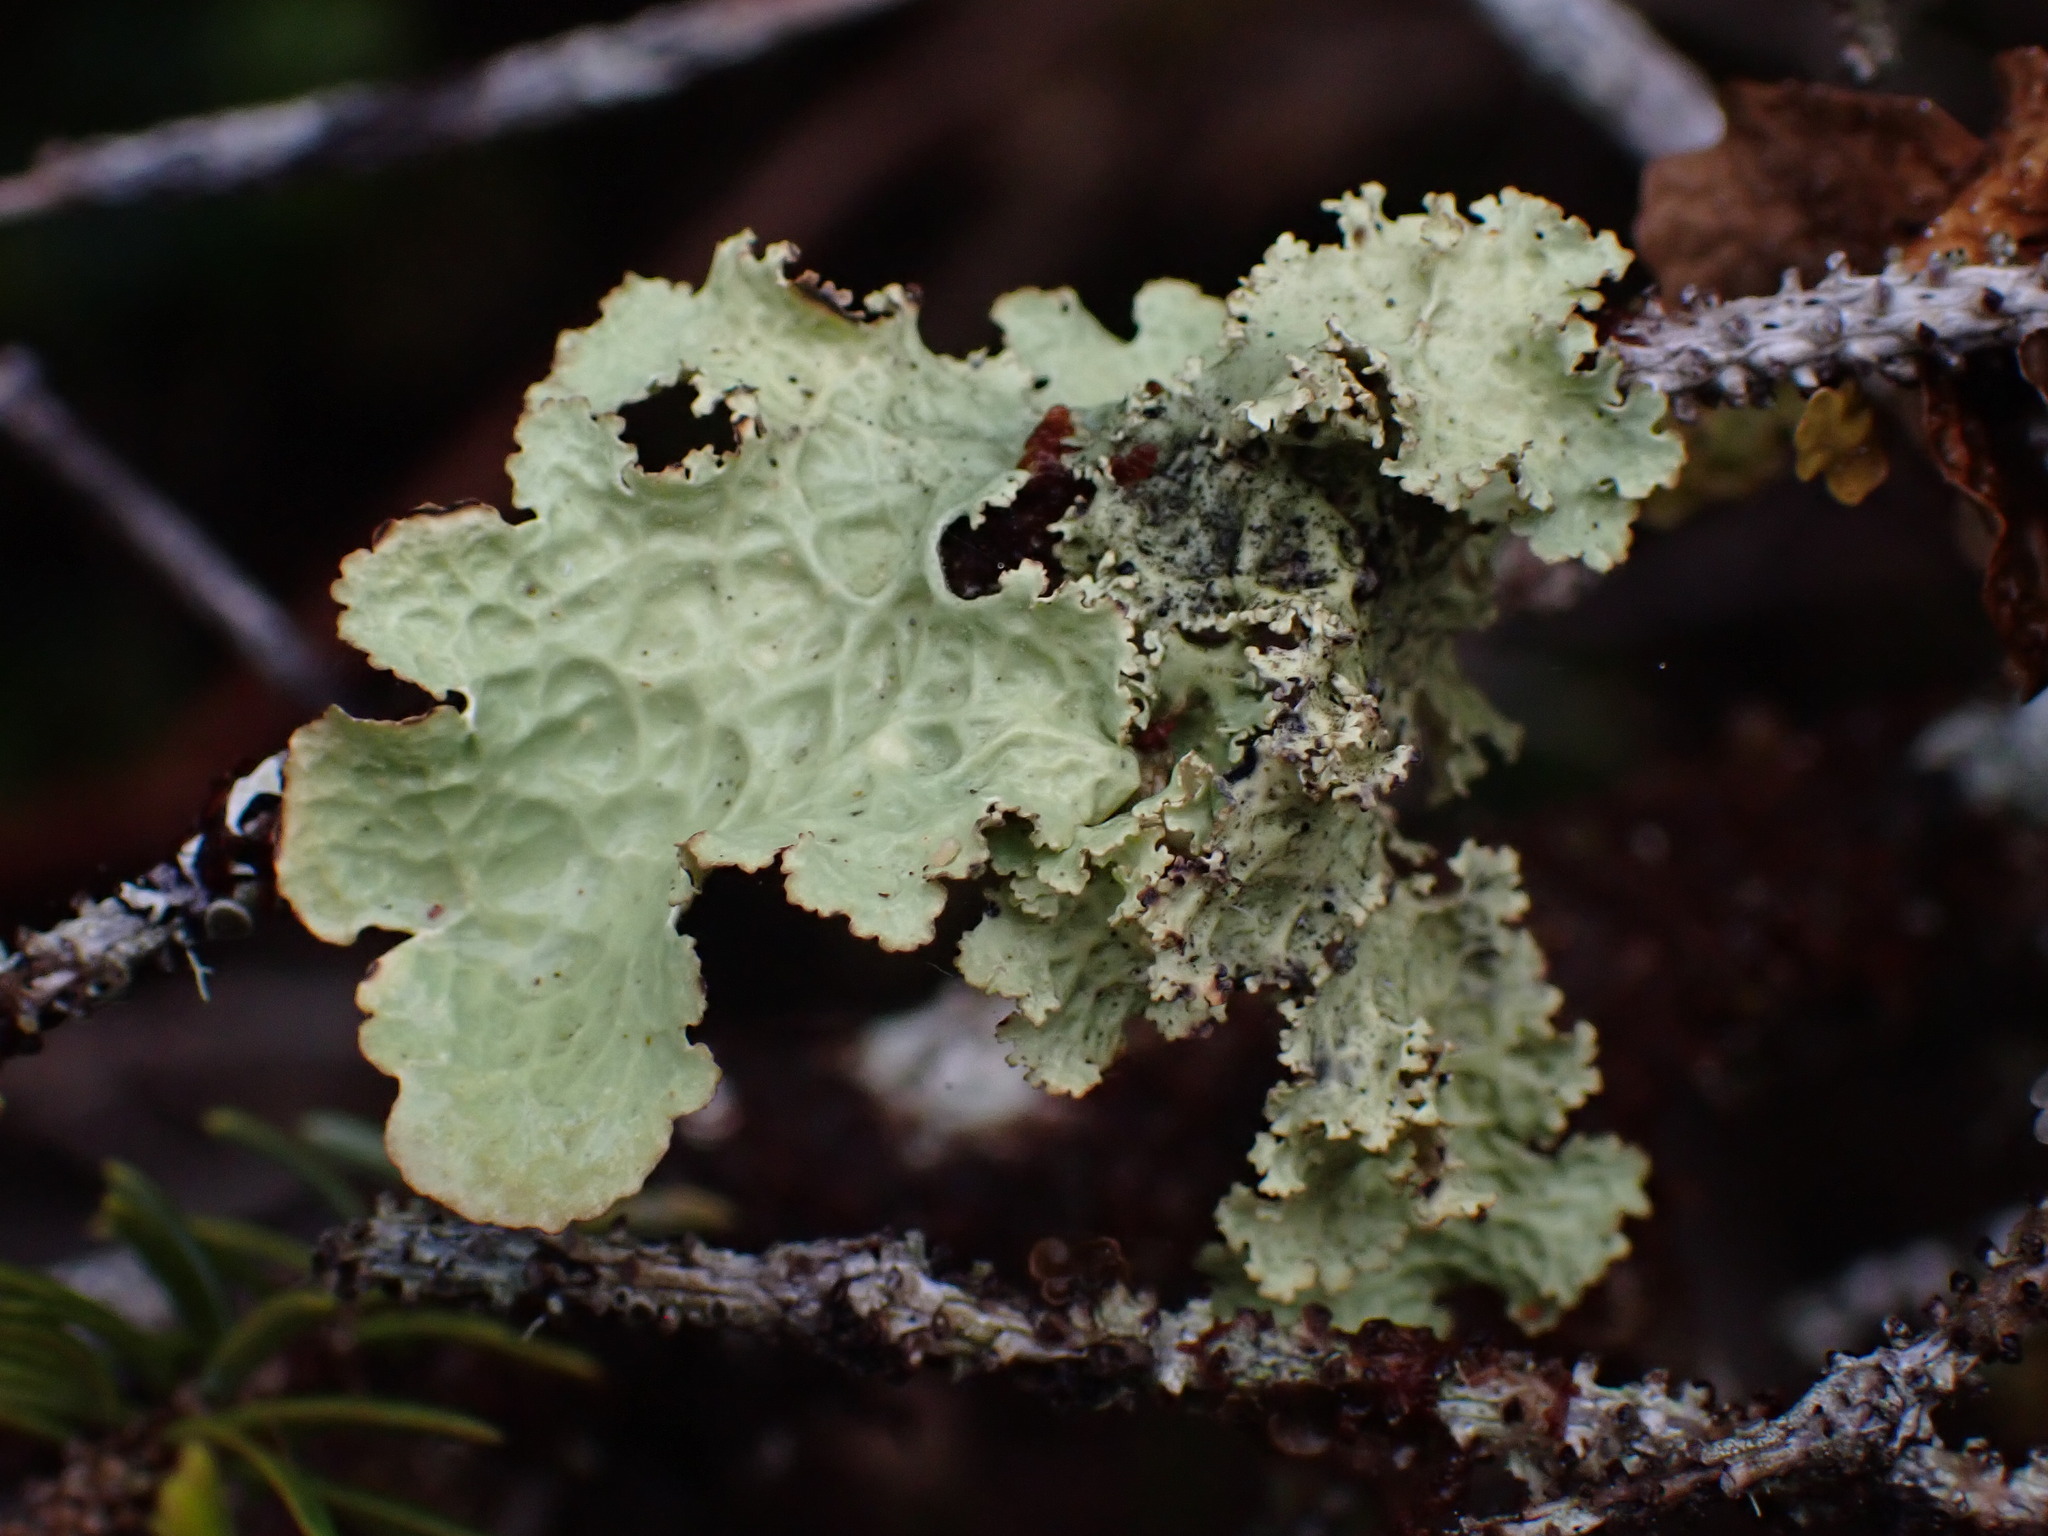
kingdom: Fungi
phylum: Ascomycota
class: Lecanoromycetes
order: Peltigerales
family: Lobariaceae
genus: Lobaria
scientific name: Lobaria oregana
